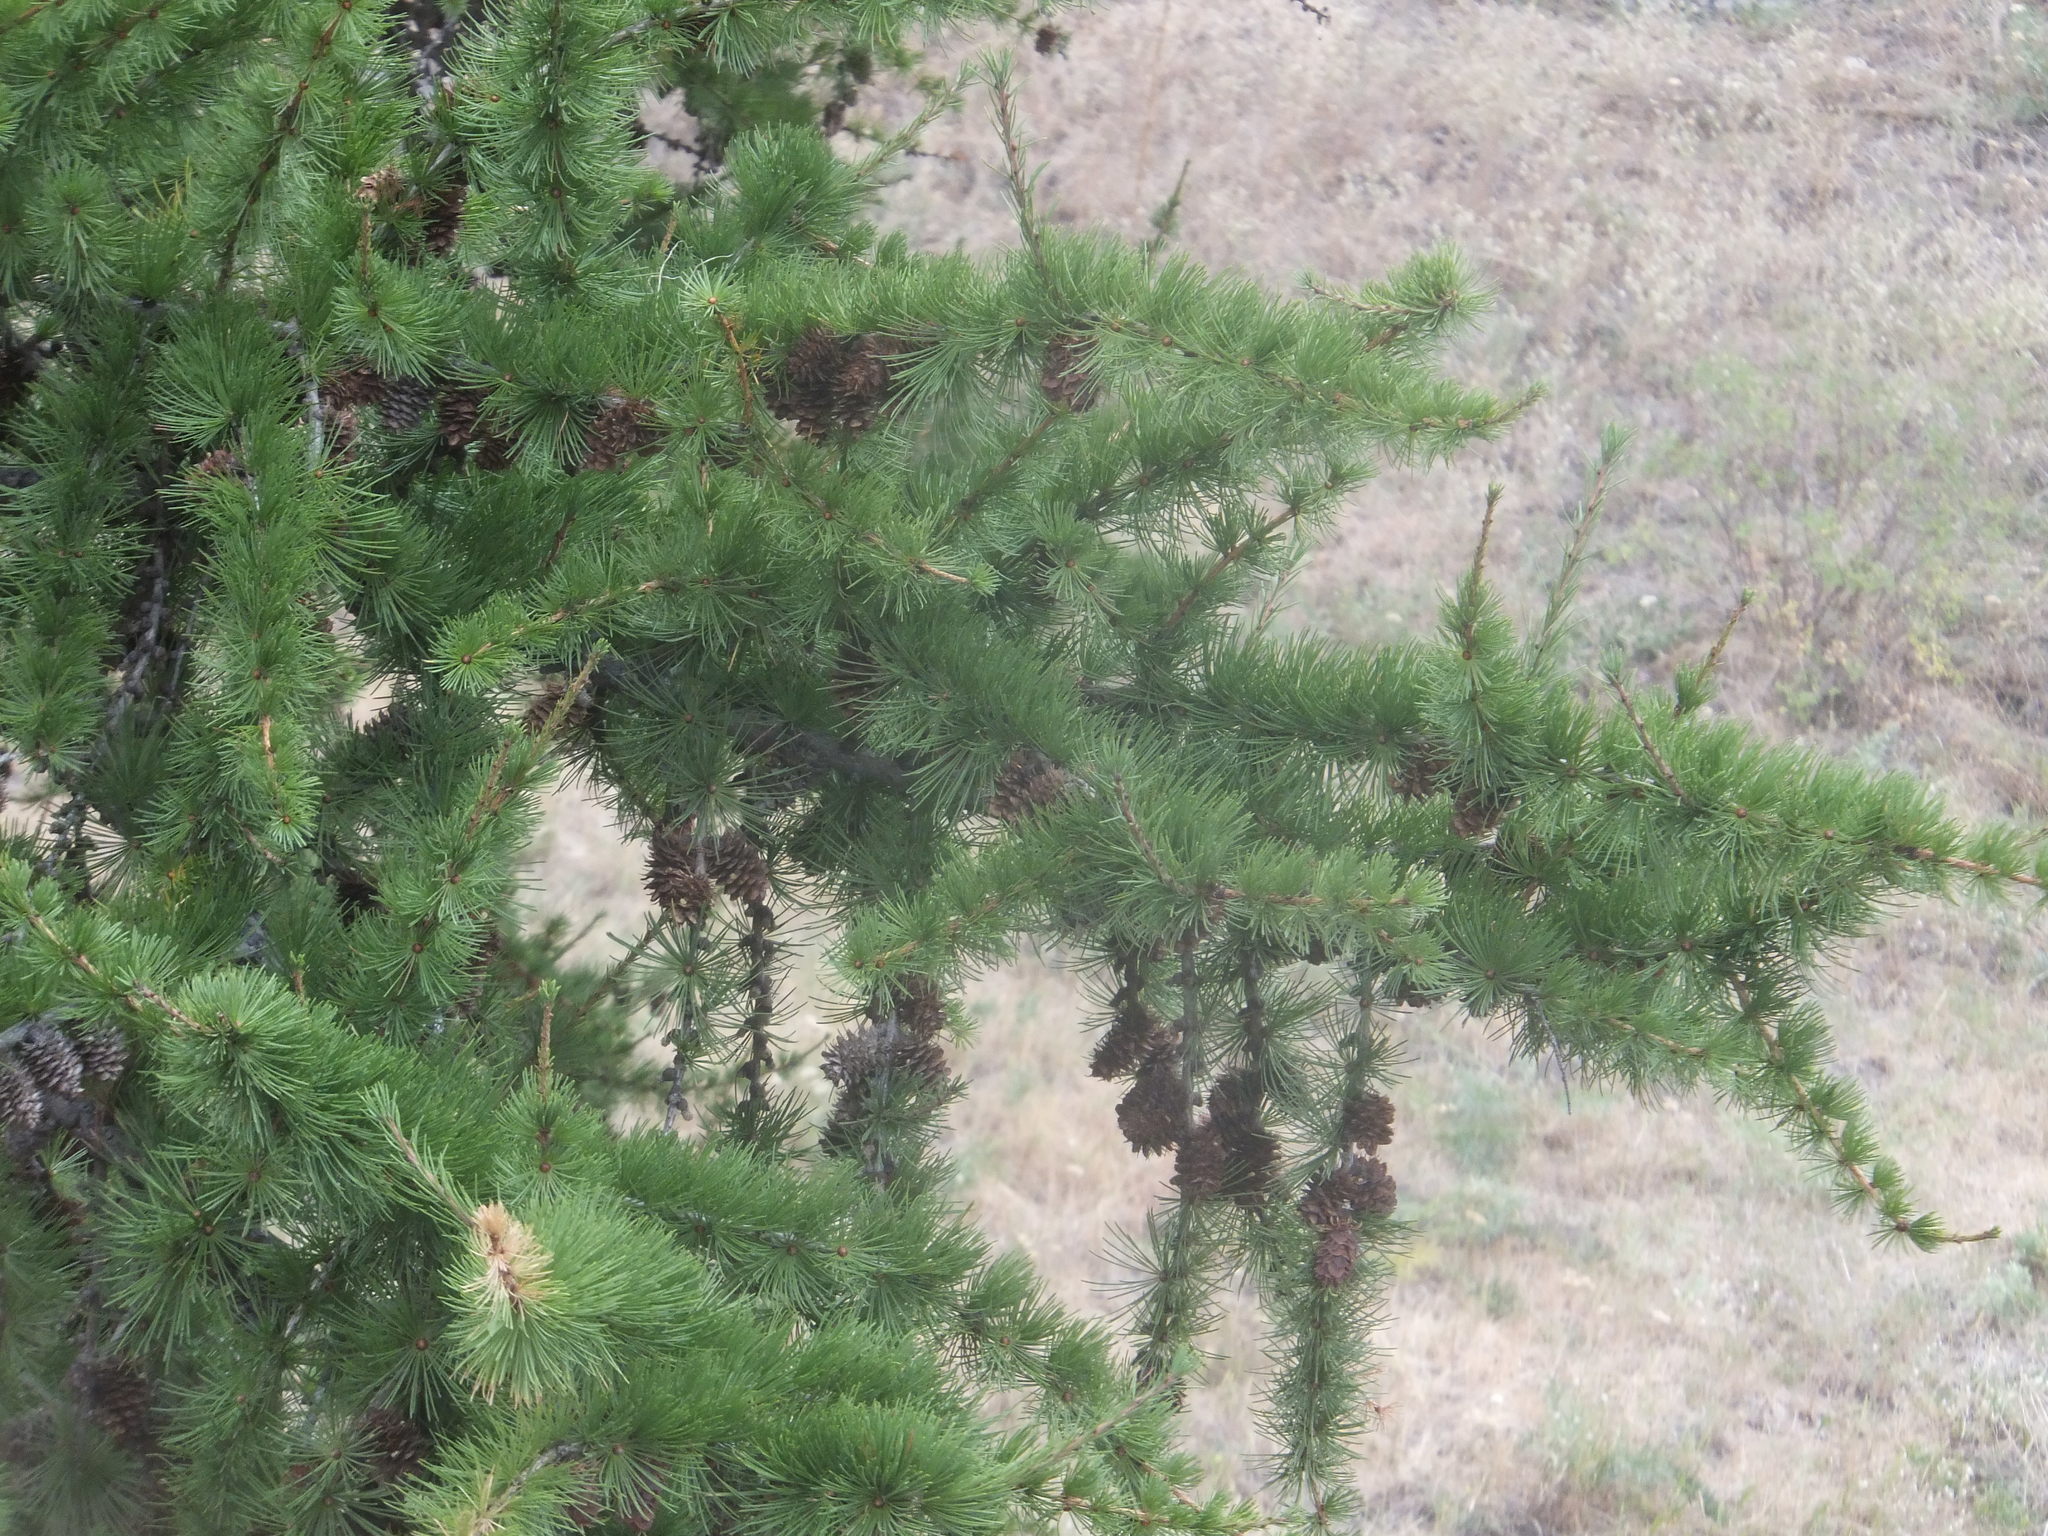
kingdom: Plantae
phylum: Tracheophyta
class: Pinopsida
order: Pinales
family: Pinaceae
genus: Larix
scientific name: Larix occidentalis
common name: Western larch
